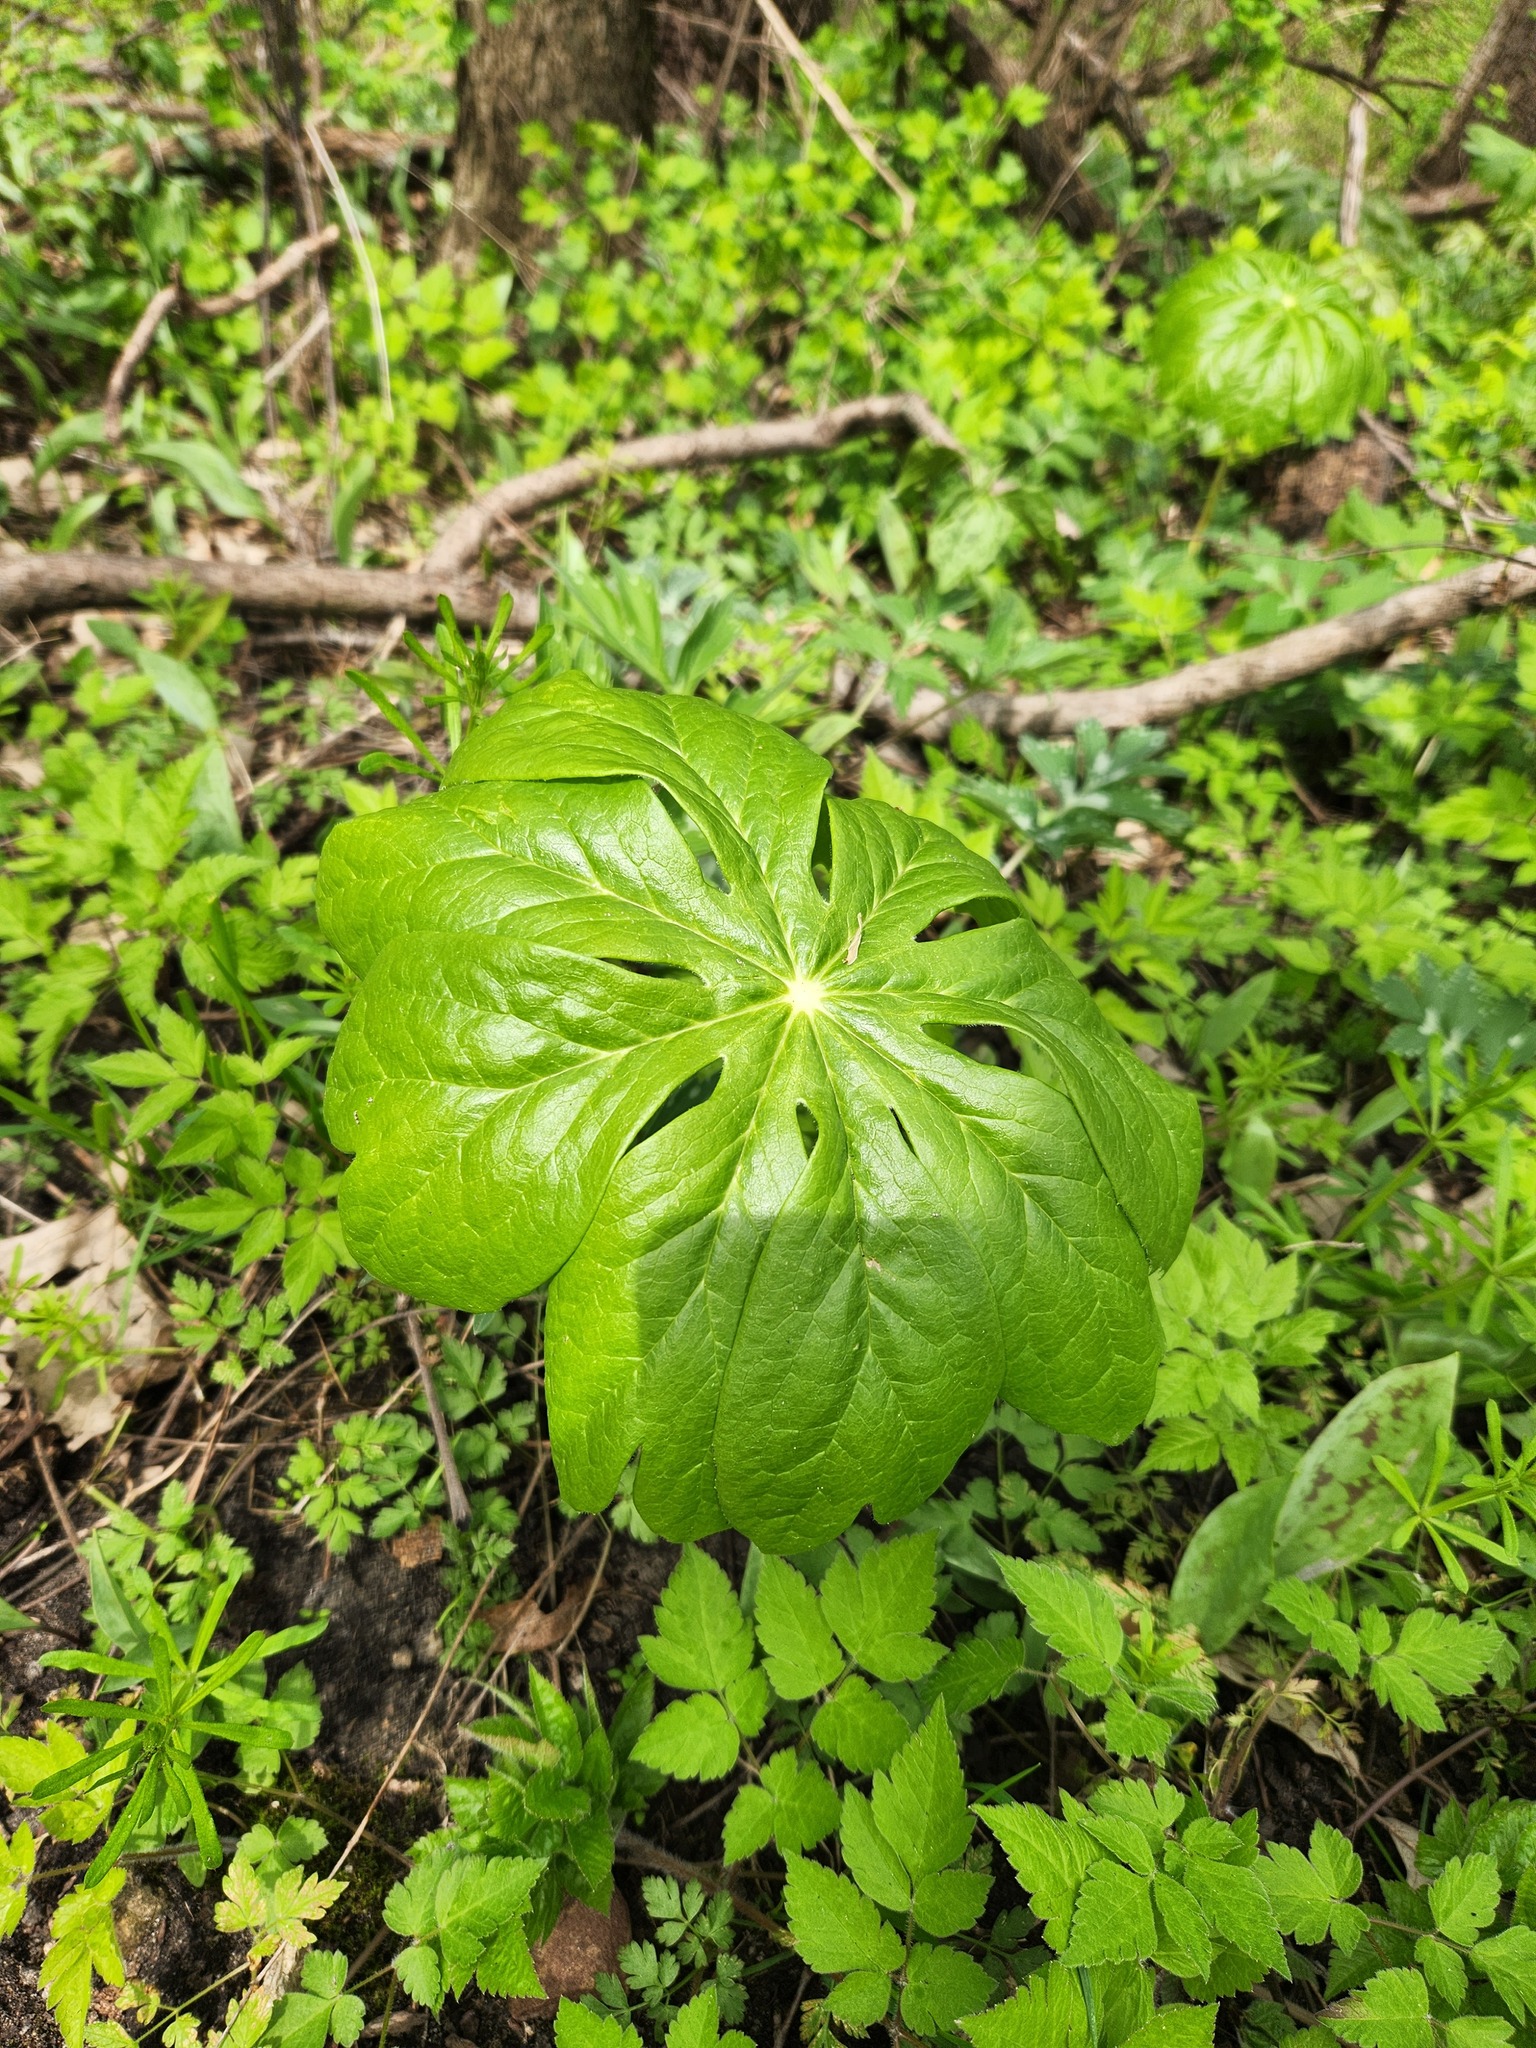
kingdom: Plantae
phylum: Tracheophyta
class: Magnoliopsida
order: Ranunculales
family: Berberidaceae
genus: Podophyllum
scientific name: Podophyllum peltatum
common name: Wild mandrake
